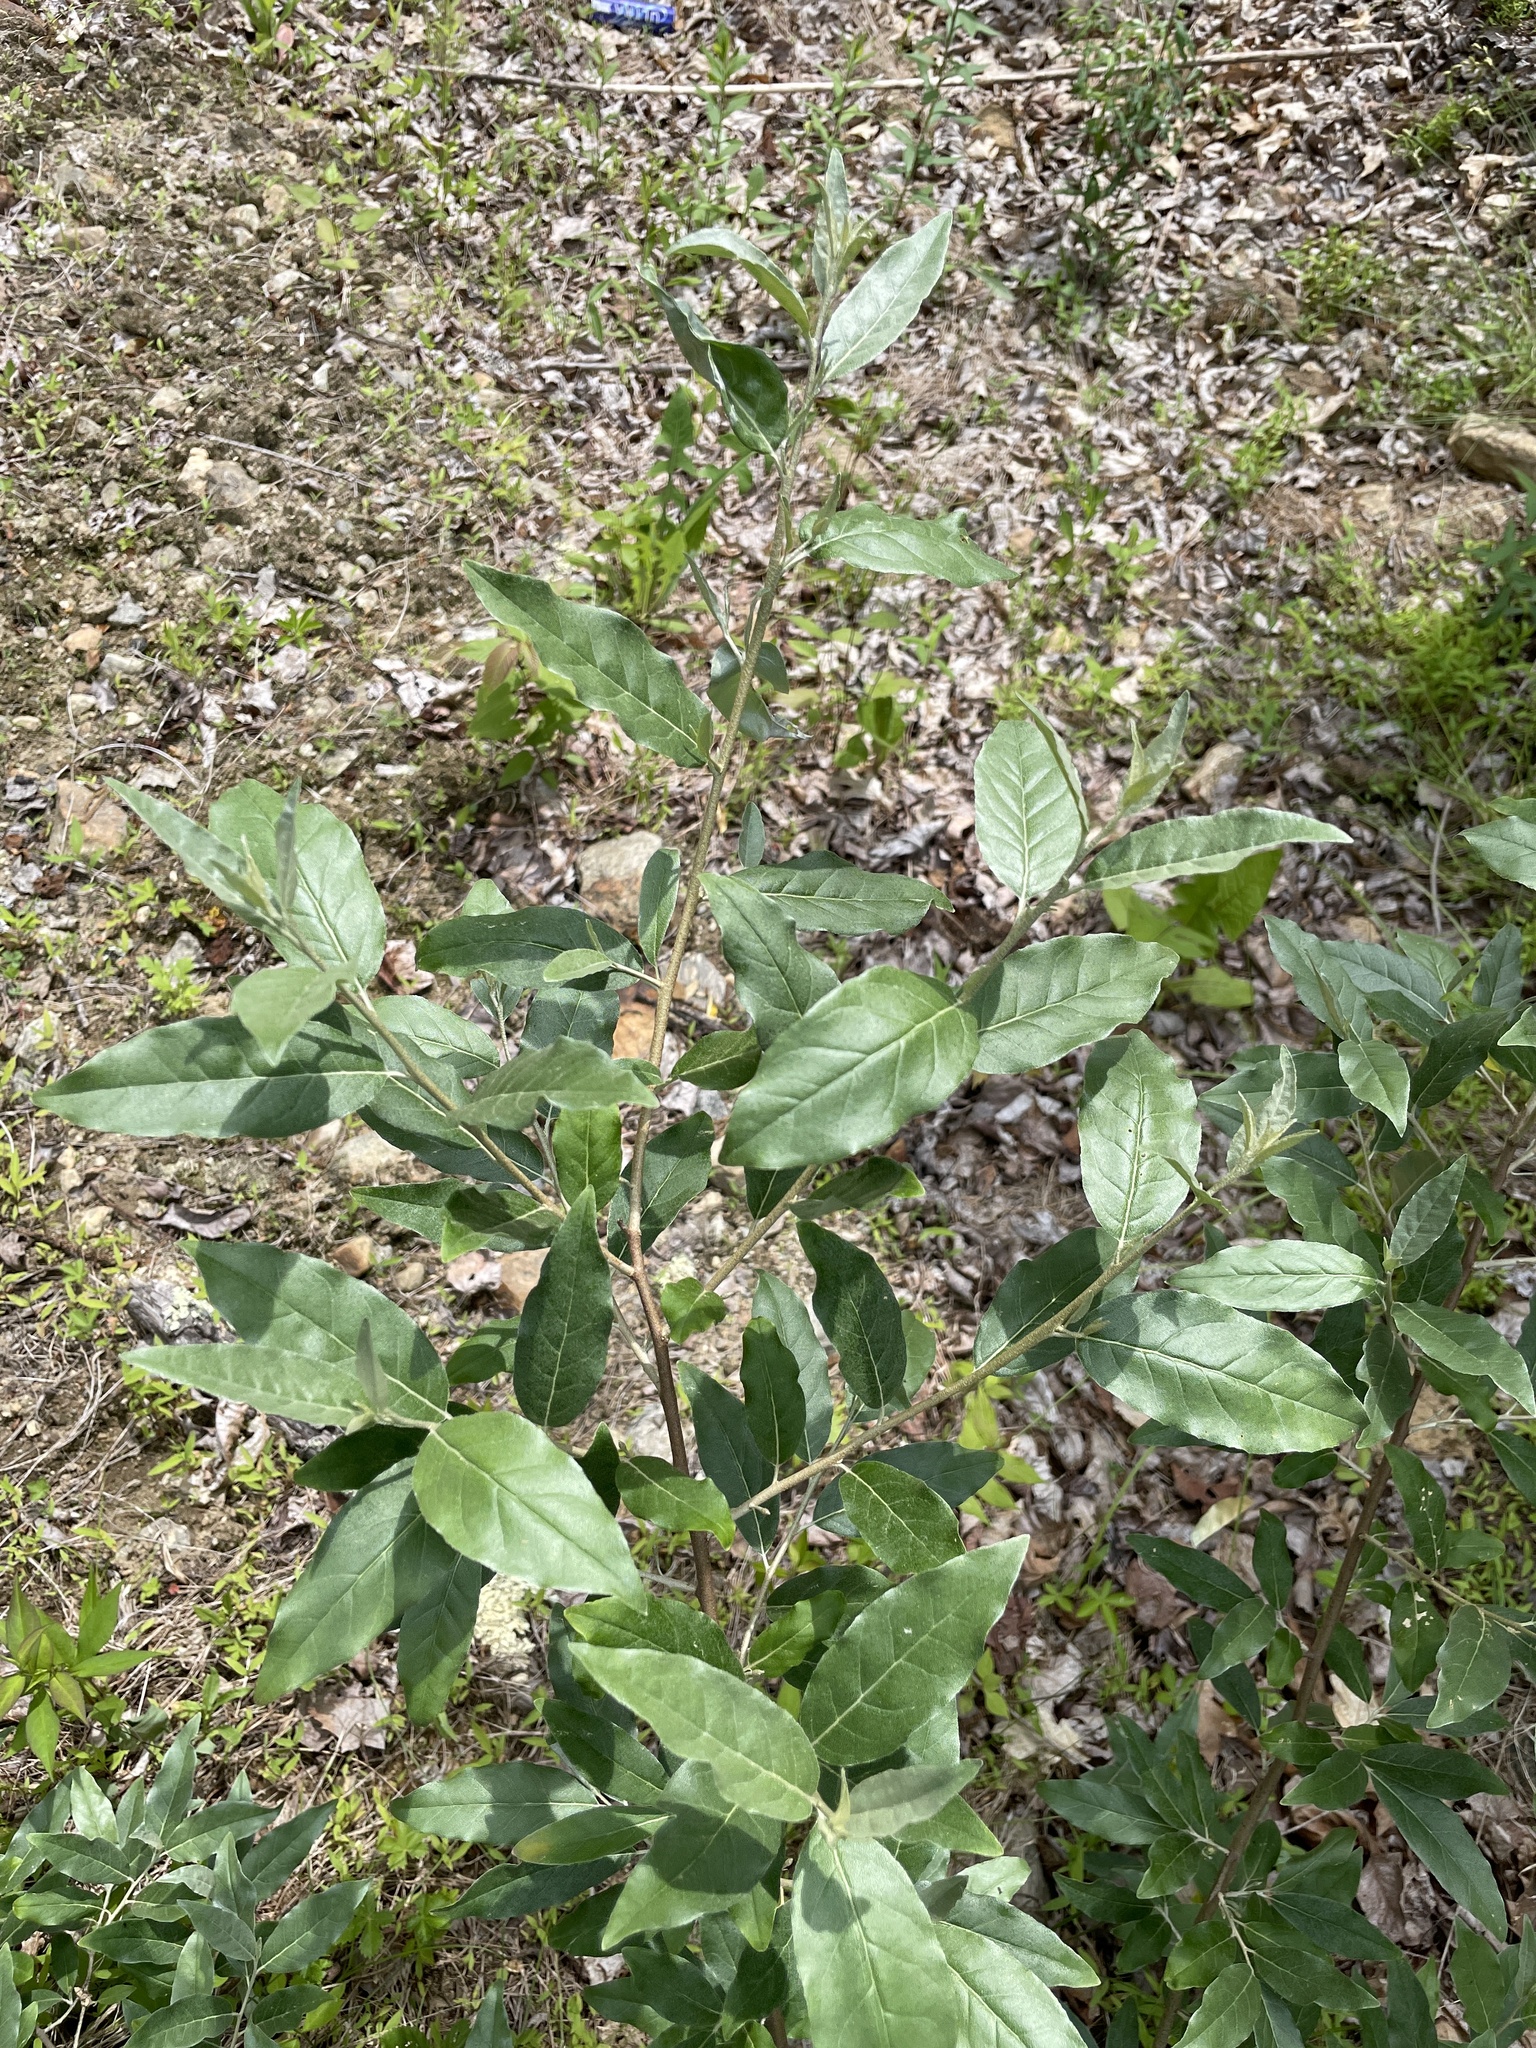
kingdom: Plantae
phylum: Tracheophyta
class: Magnoliopsida
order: Rosales
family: Elaeagnaceae
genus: Elaeagnus
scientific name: Elaeagnus umbellata
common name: Autumn olive
